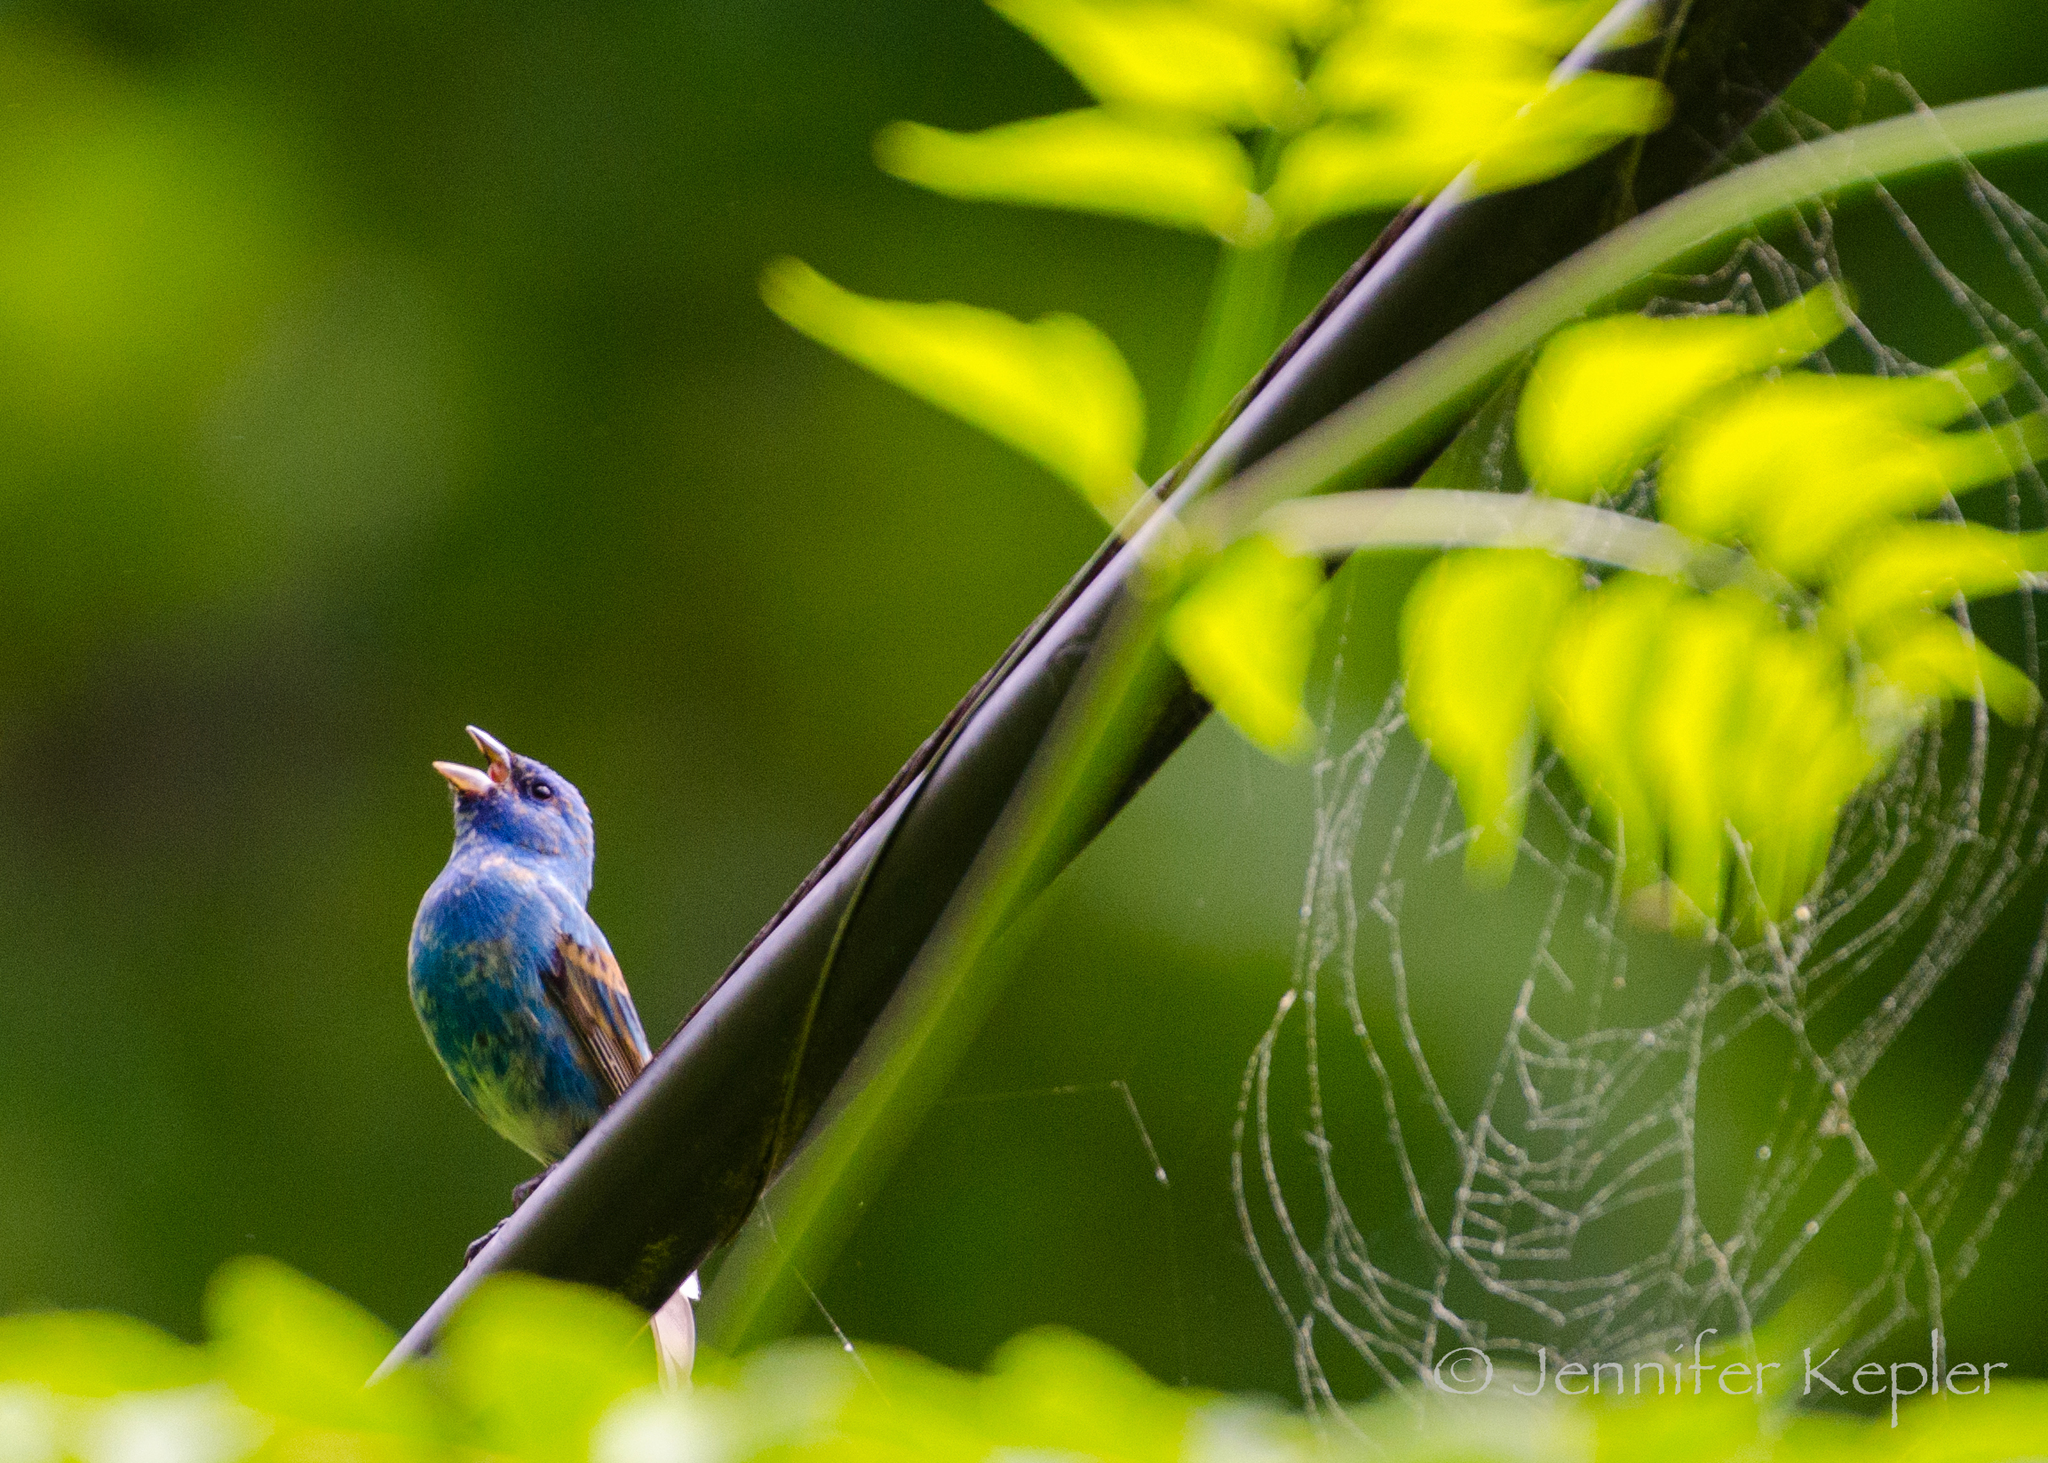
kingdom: Animalia
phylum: Chordata
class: Aves
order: Passeriformes
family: Cardinalidae
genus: Passerina
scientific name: Passerina caerulea
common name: Blue grosbeak
